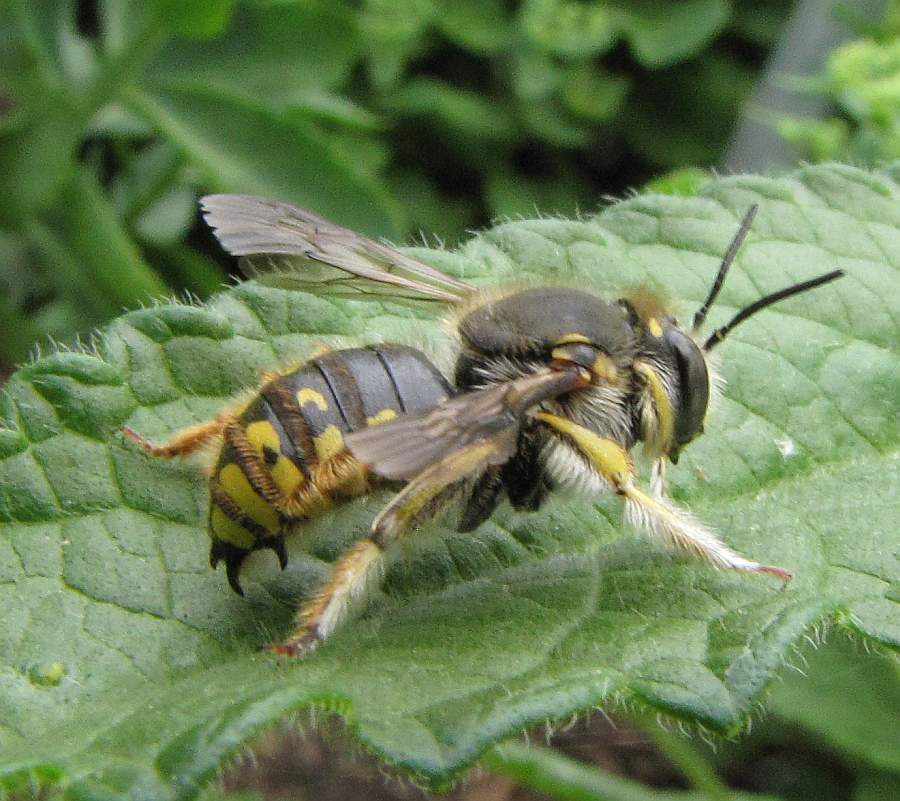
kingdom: Animalia
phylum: Arthropoda
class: Insecta
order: Hymenoptera
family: Megachilidae
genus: Anthidium
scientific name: Anthidium manicatum
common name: Wool carder bee
